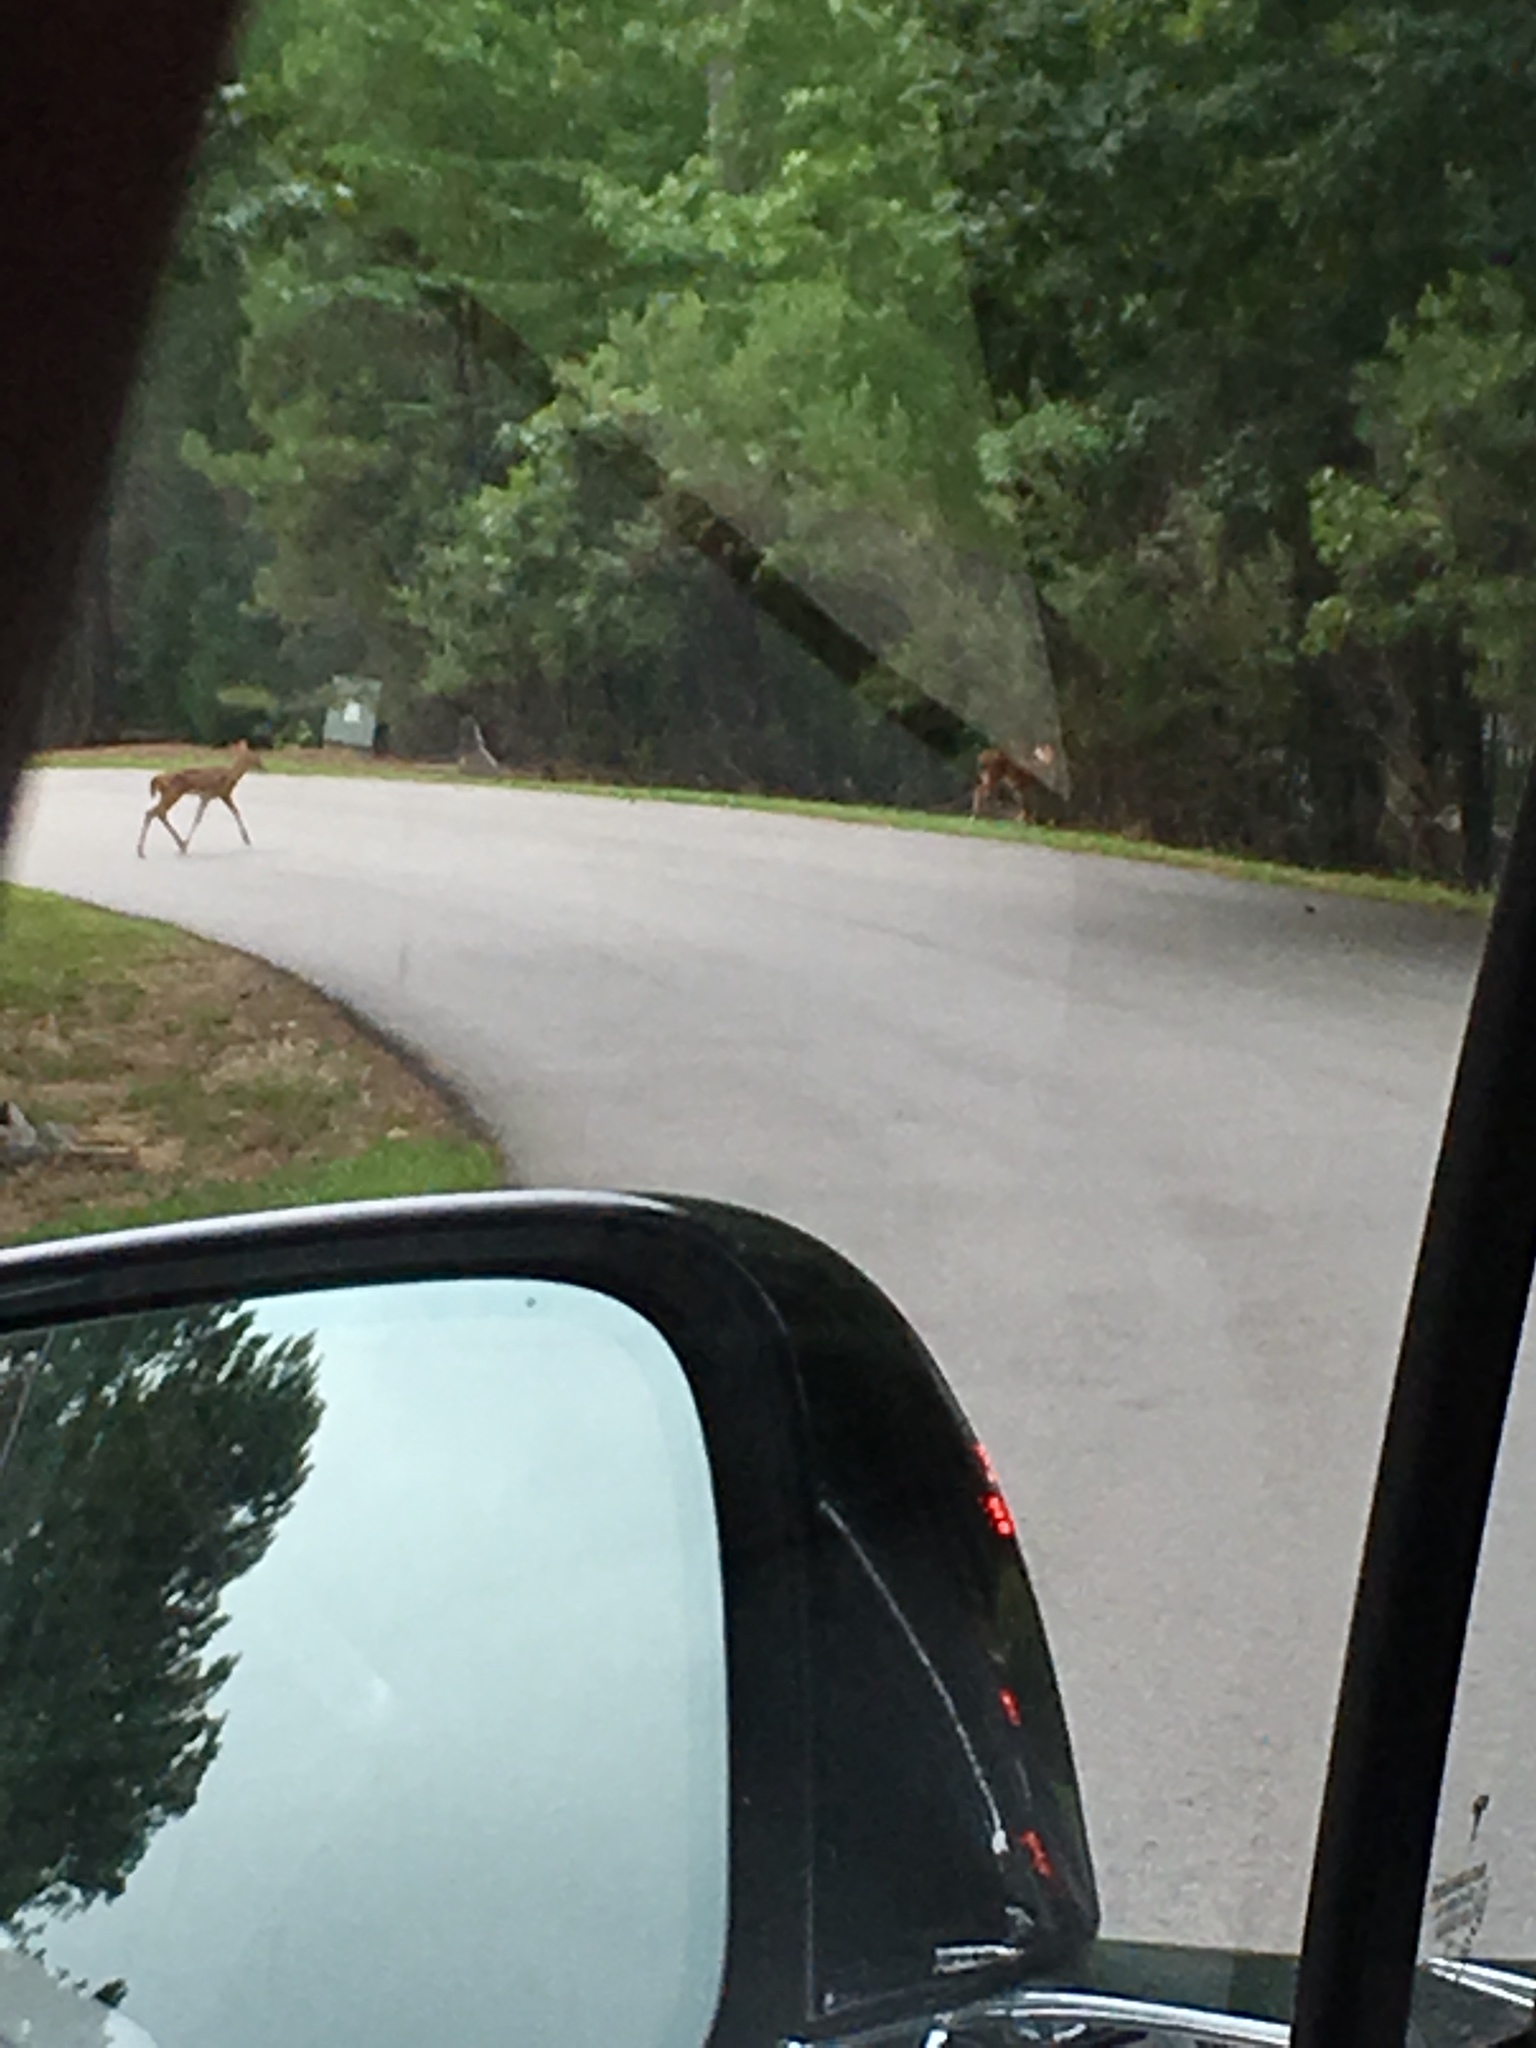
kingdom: Animalia
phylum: Chordata
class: Mammalia
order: Artiodactyla
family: Cervidae
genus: Odocoileus
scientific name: Odocoileus virginianus
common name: White-tailed deer
